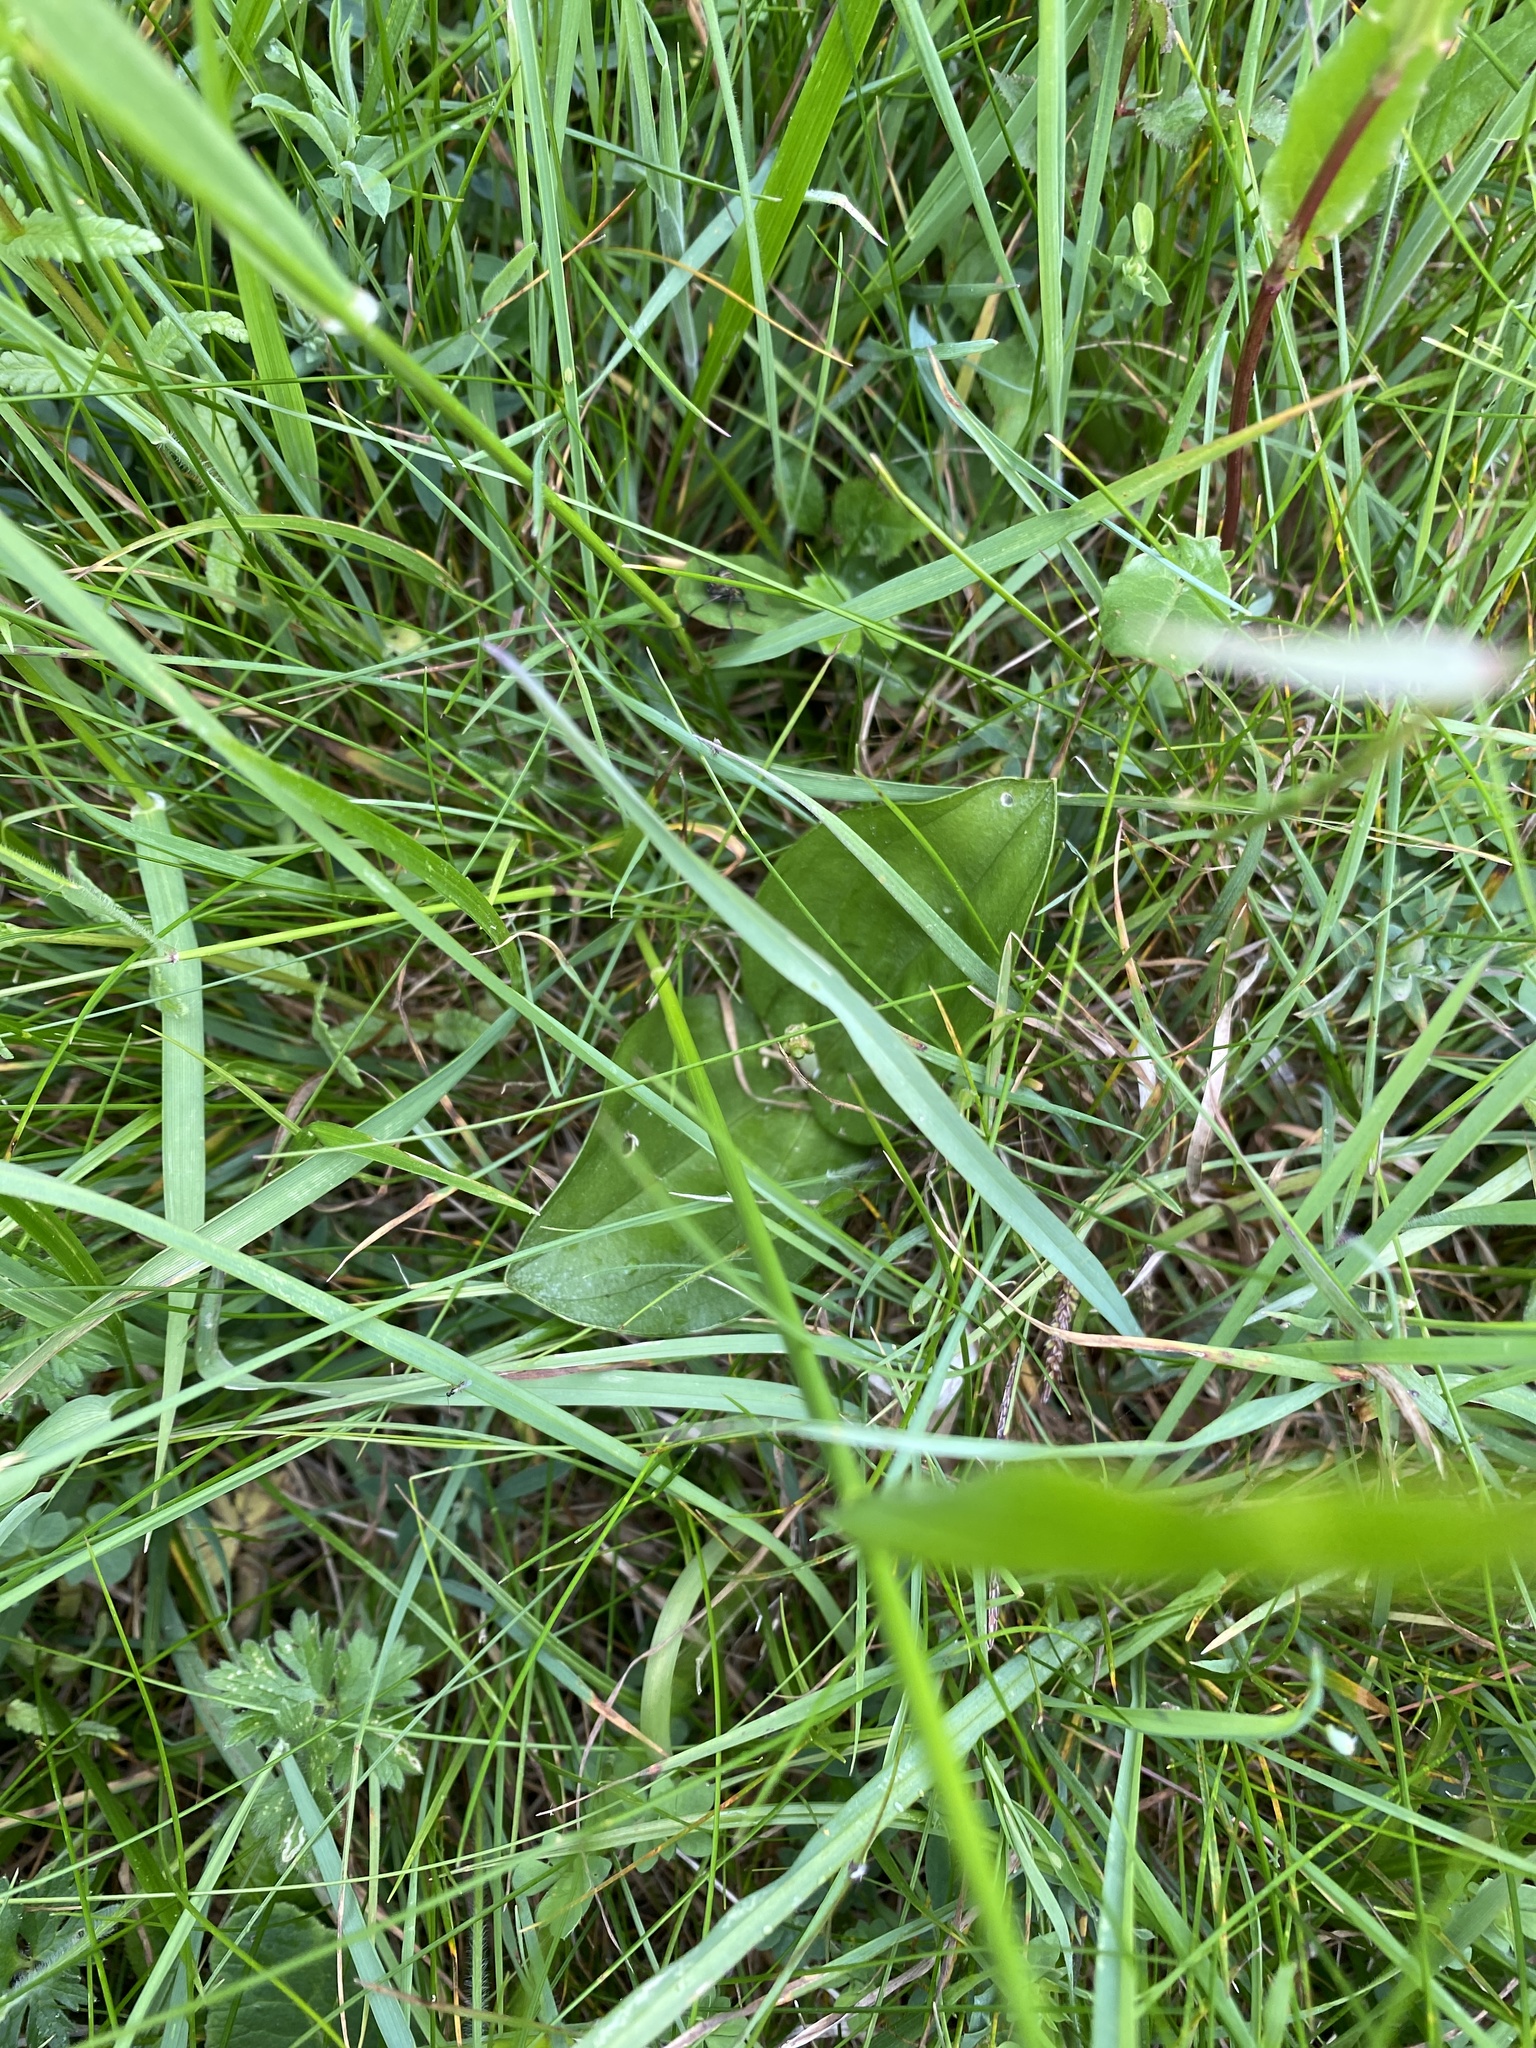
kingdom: Plantae
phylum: Tracheophyta
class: Liliopsida
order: Asparagales
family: Orchidaceae
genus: Neottia
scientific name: Neottia ovata
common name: Common twayblade
